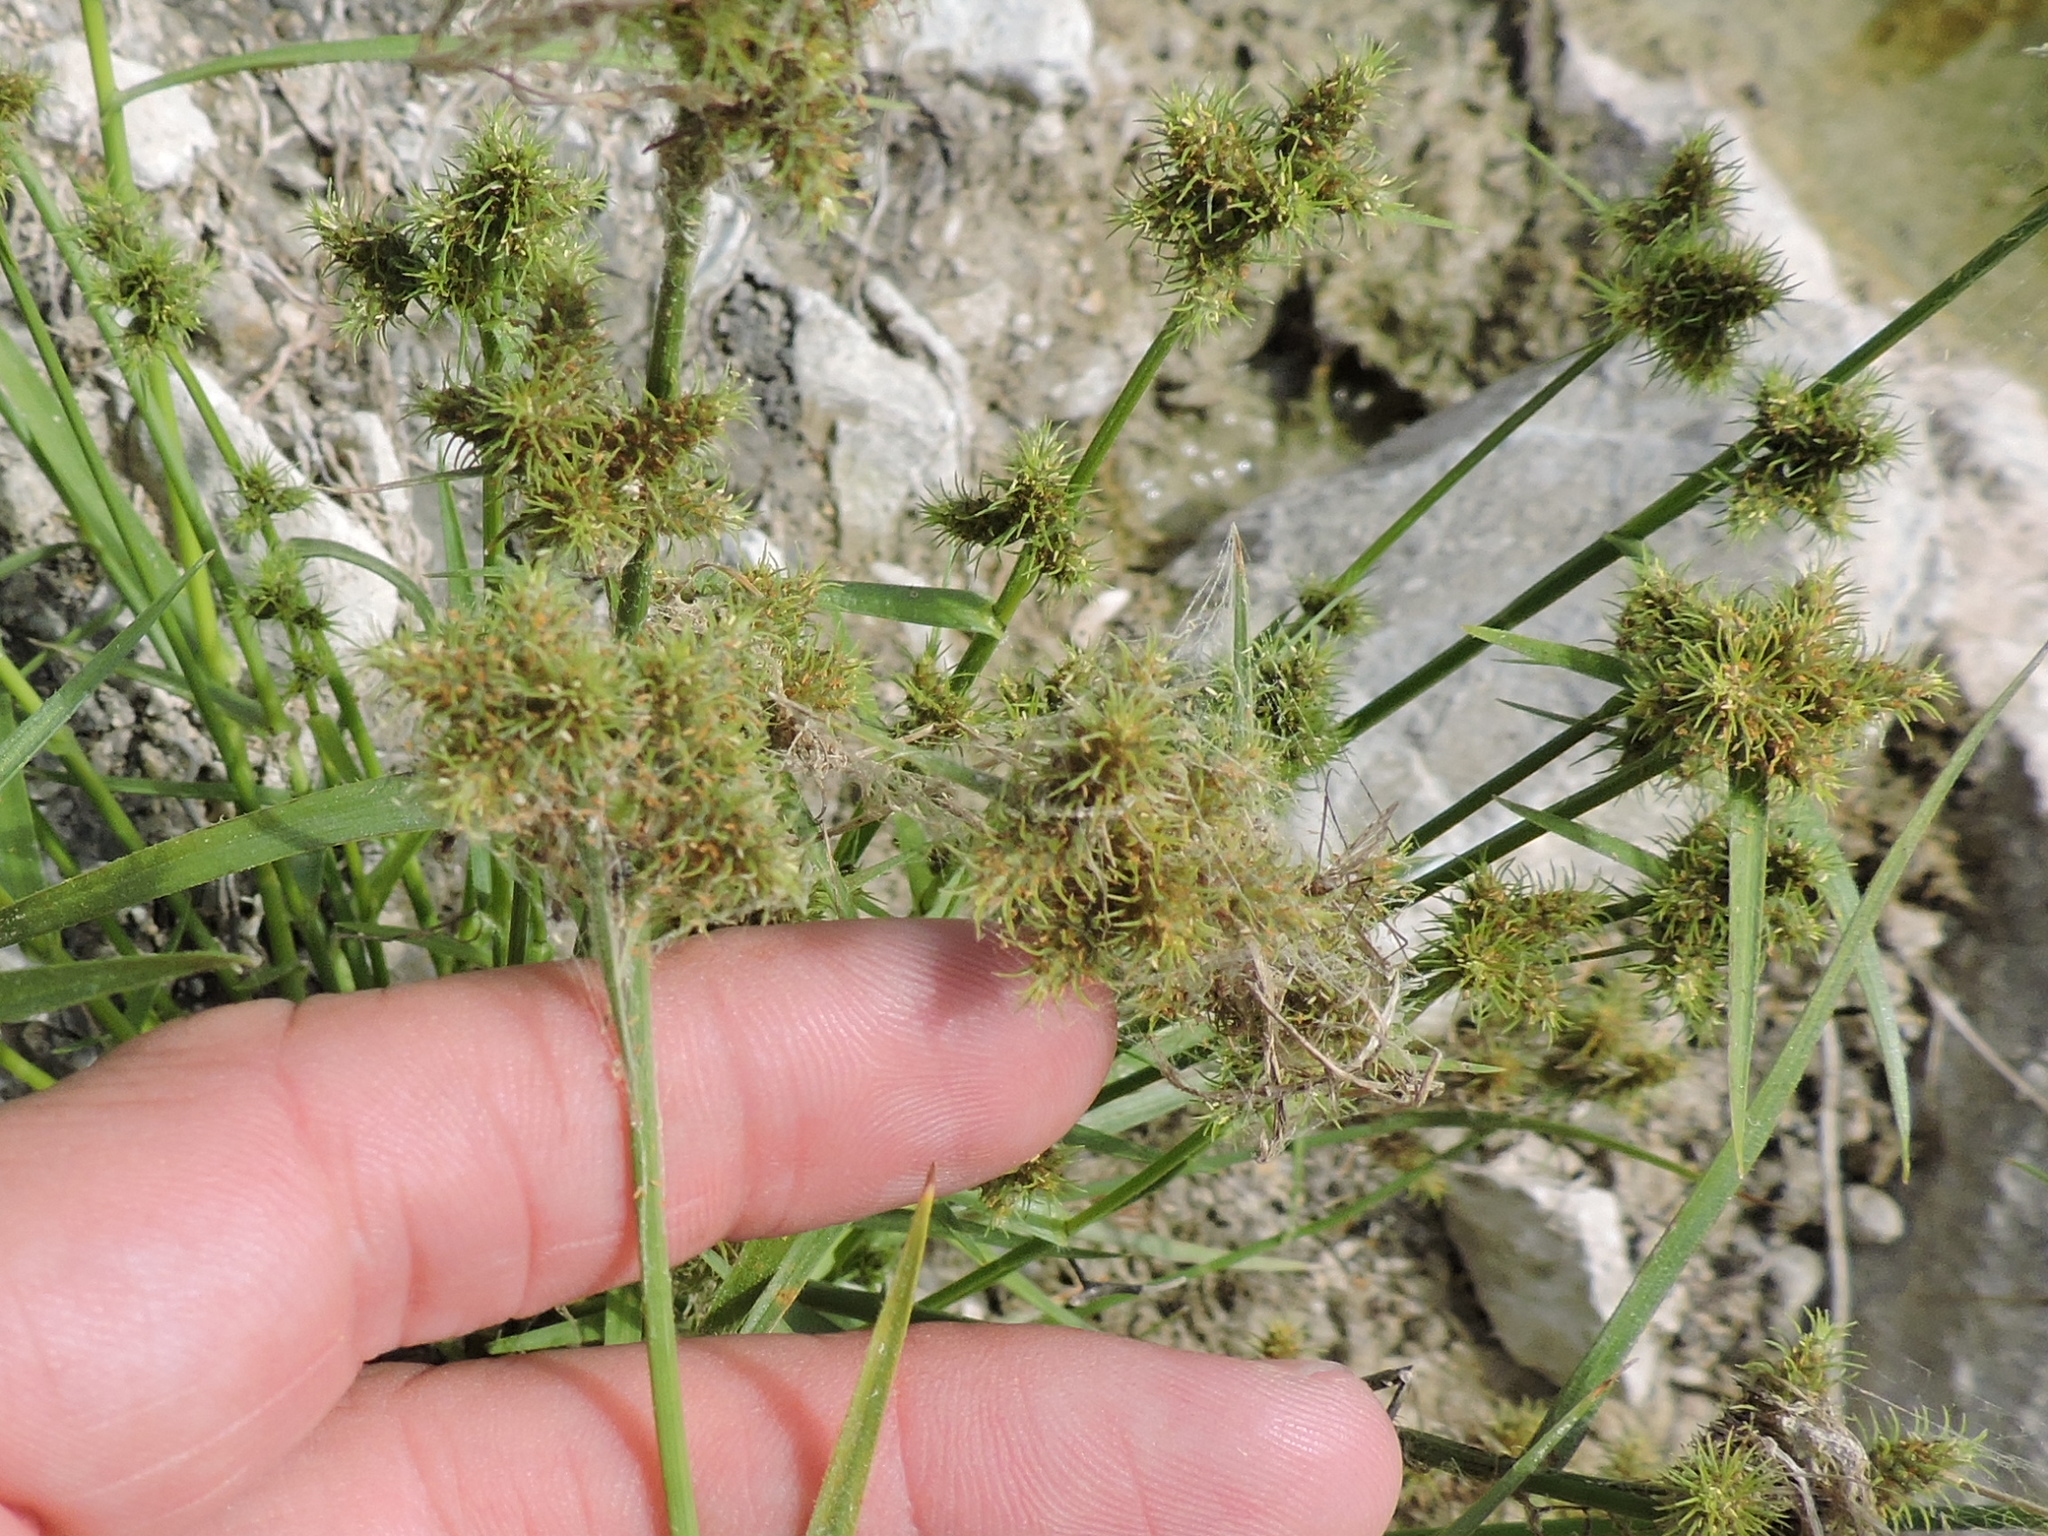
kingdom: Plantae
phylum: Tracheophyta
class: Liliopsida
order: Poales
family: Cyperaceae
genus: Fuirena
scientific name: Fuirena simplex
